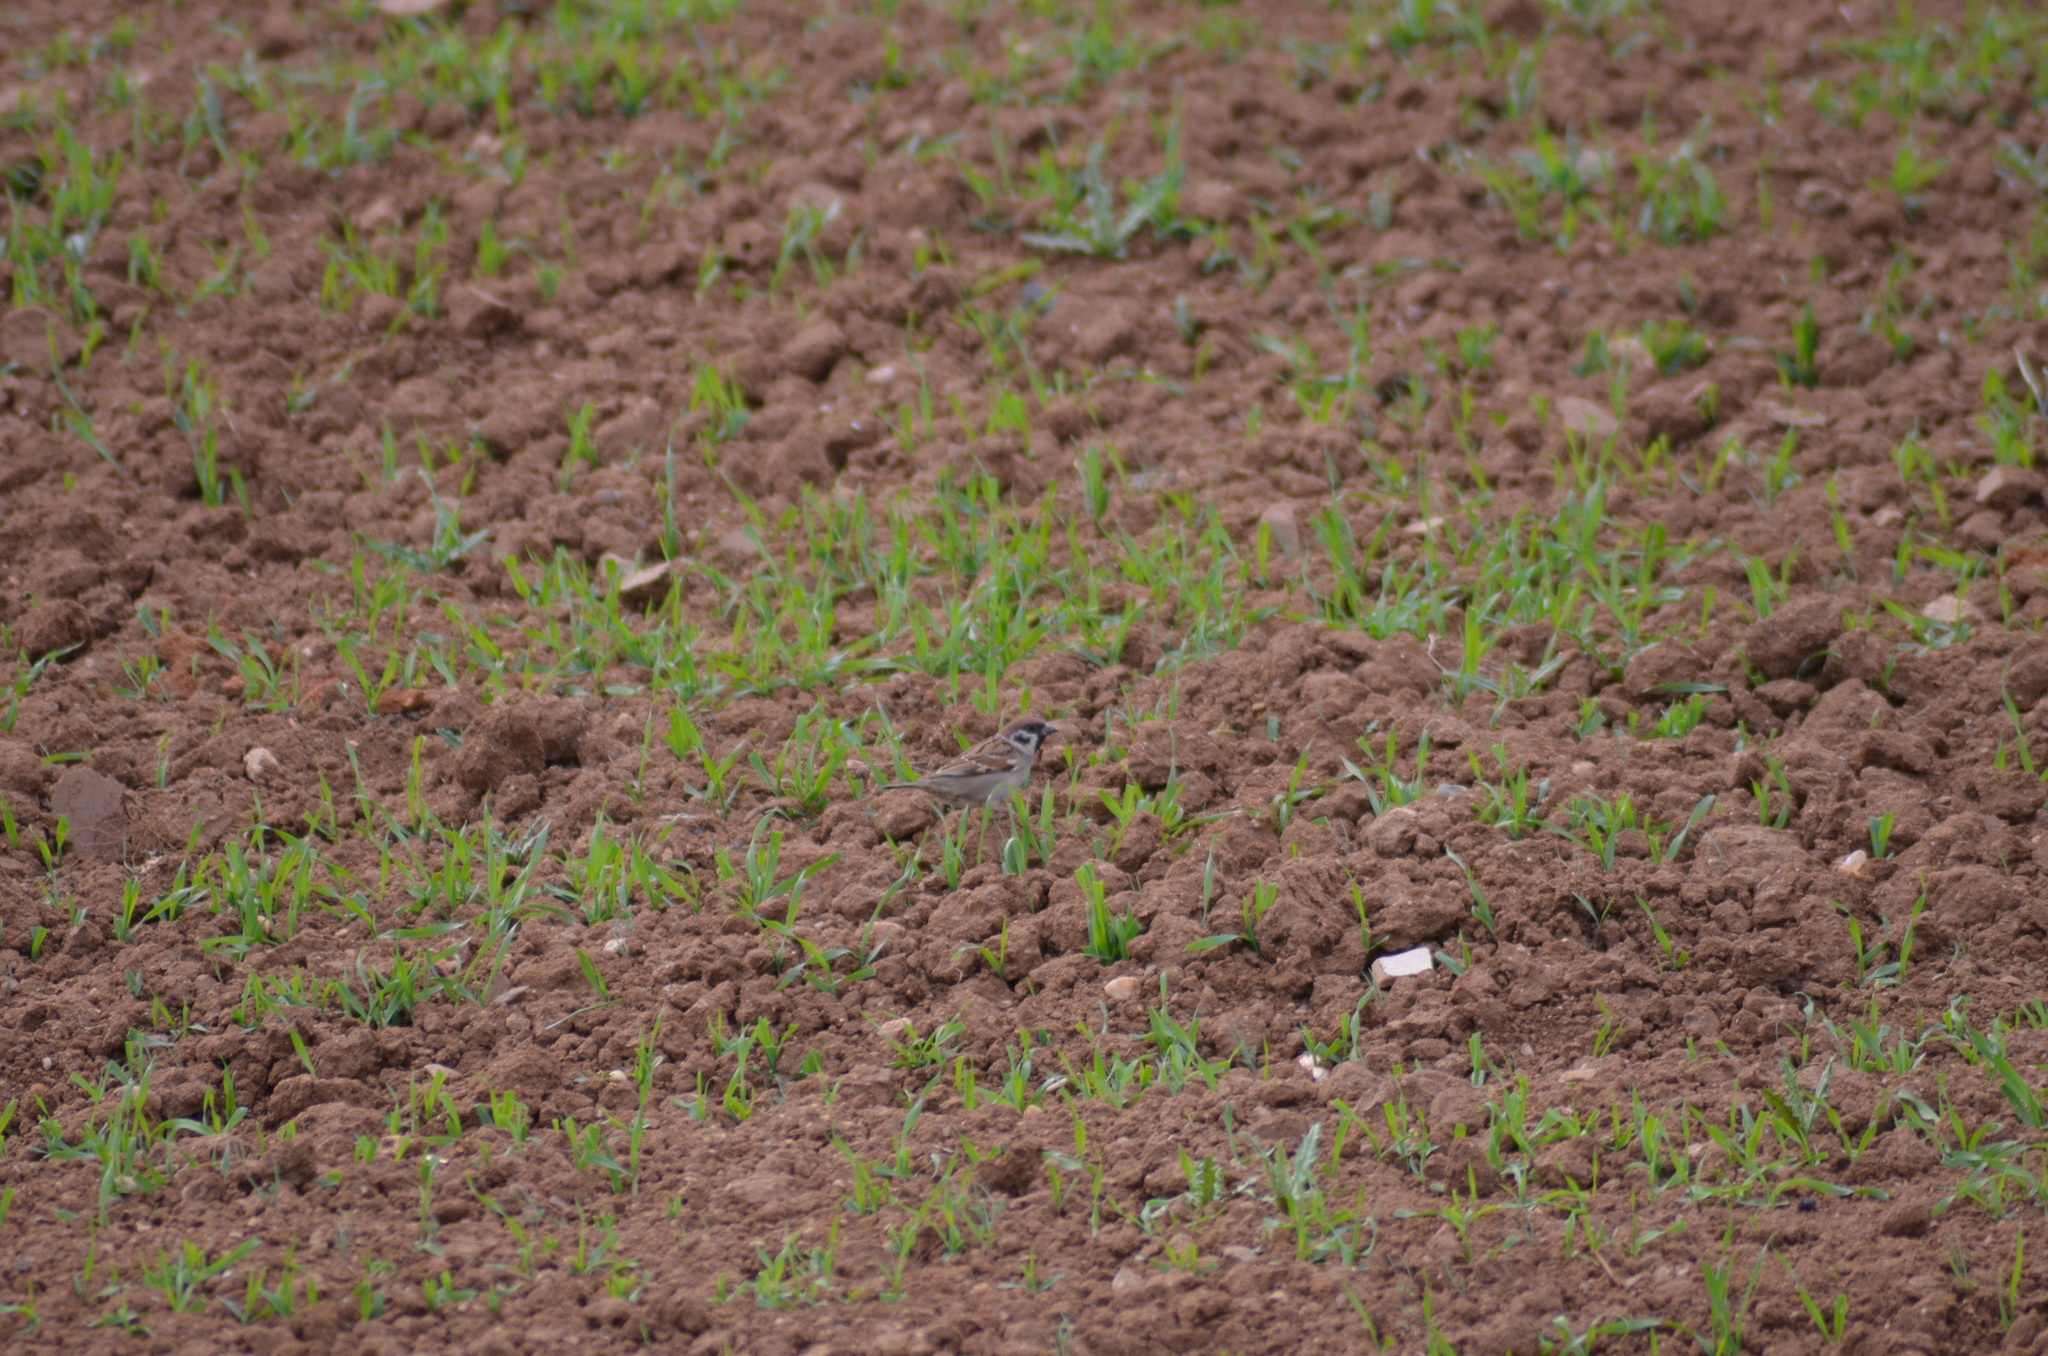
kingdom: Animalia
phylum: Chordata
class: Aves
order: Passeriformes
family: Passeridae
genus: Passer
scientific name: Passer montanus
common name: Eurasian tree sparrow
